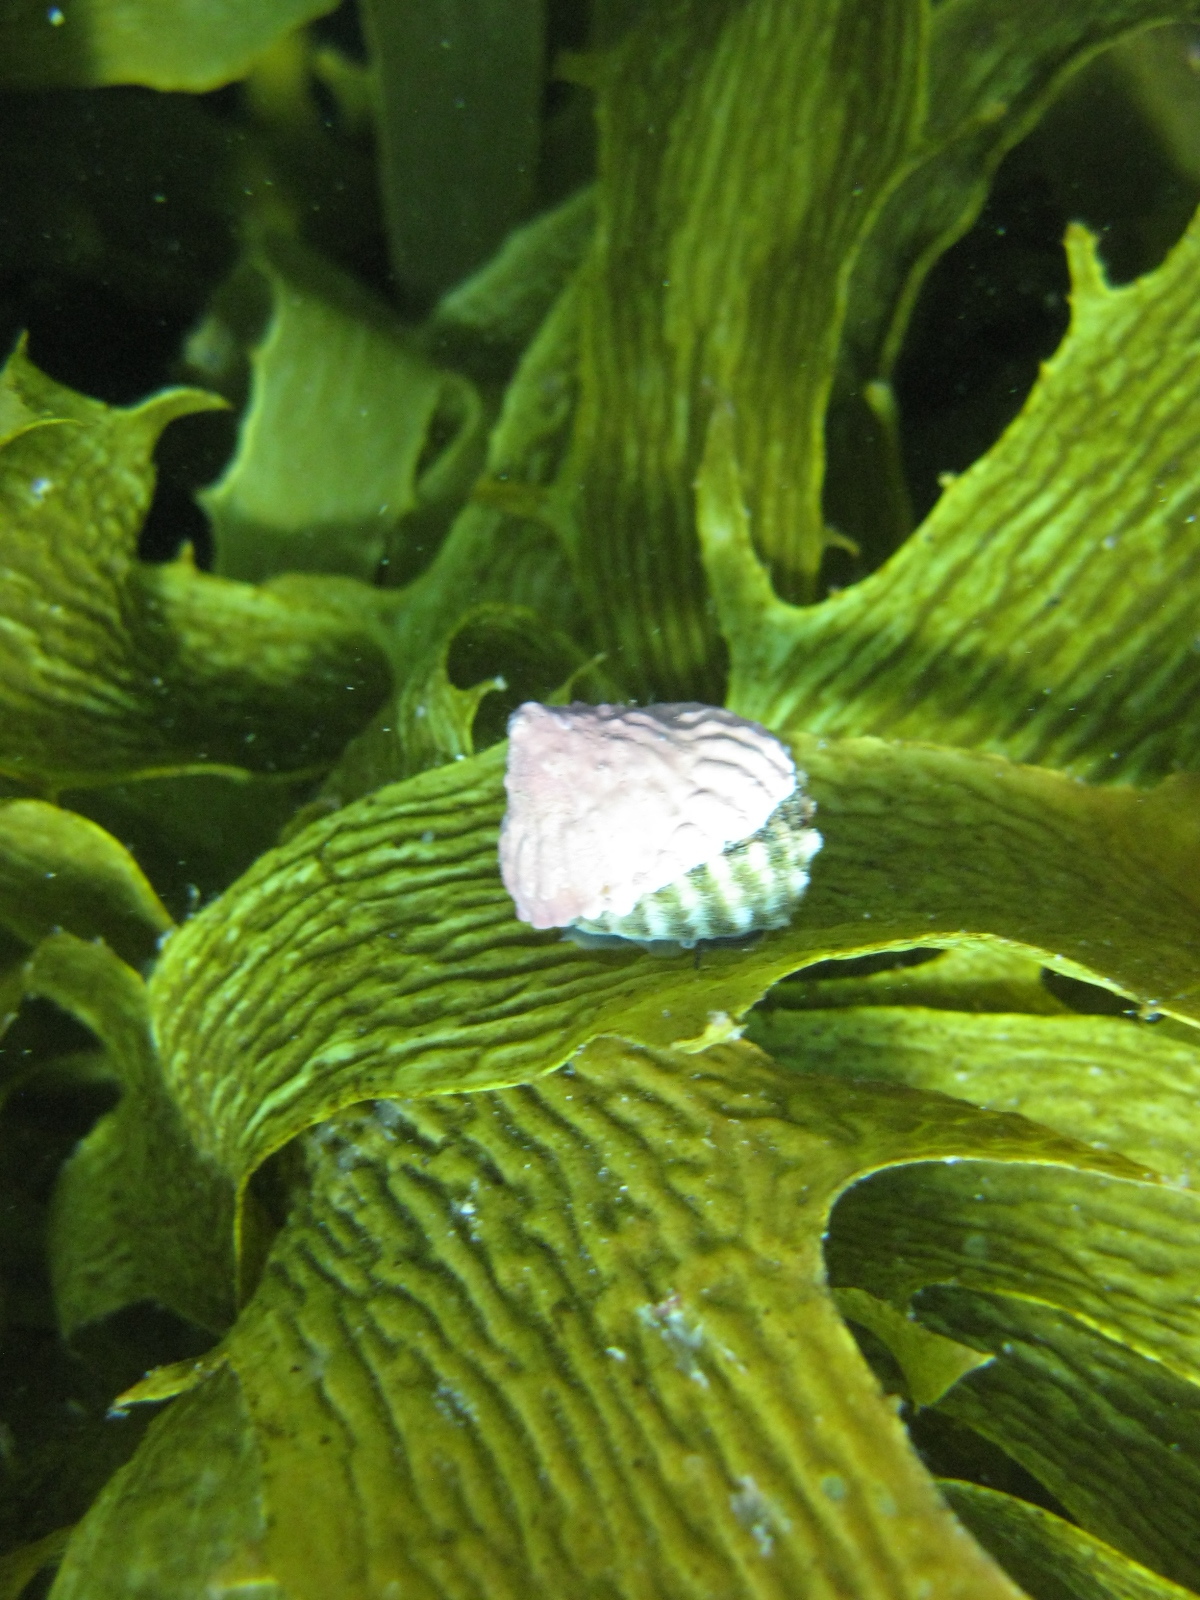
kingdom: Animalia
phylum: Mollusca
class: Gastropoda
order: Trochida
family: Turbinidae
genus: Cookia
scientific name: Cookia sulcata
